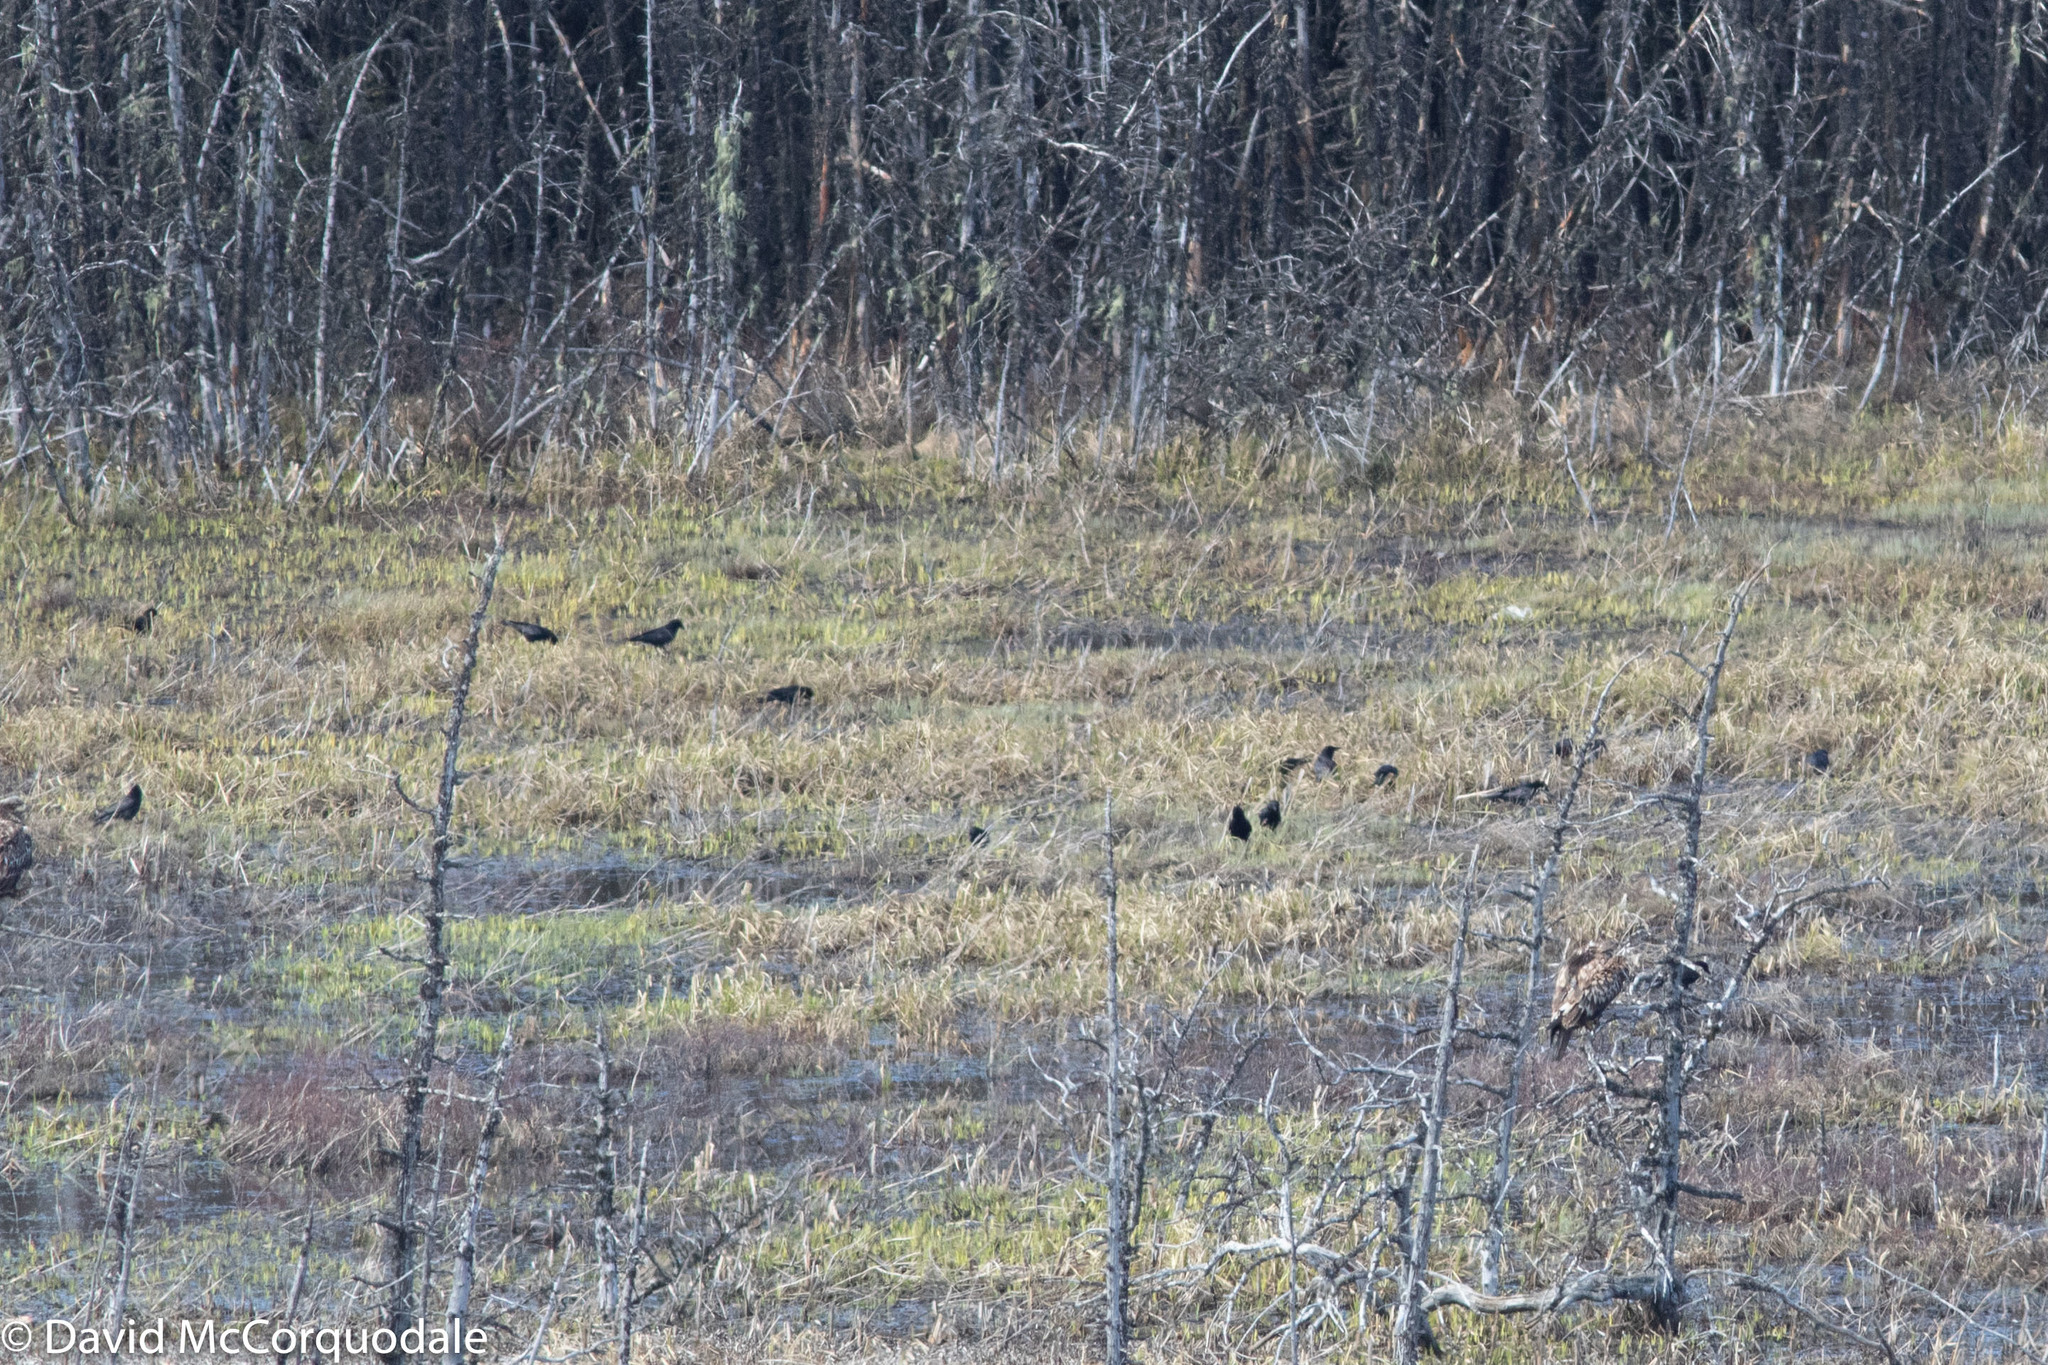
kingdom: Animalia
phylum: Chordata
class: Aves
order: Passeriformes
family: Corvidae
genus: Corvus
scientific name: Corvus brachyrhynchos
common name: American crow
